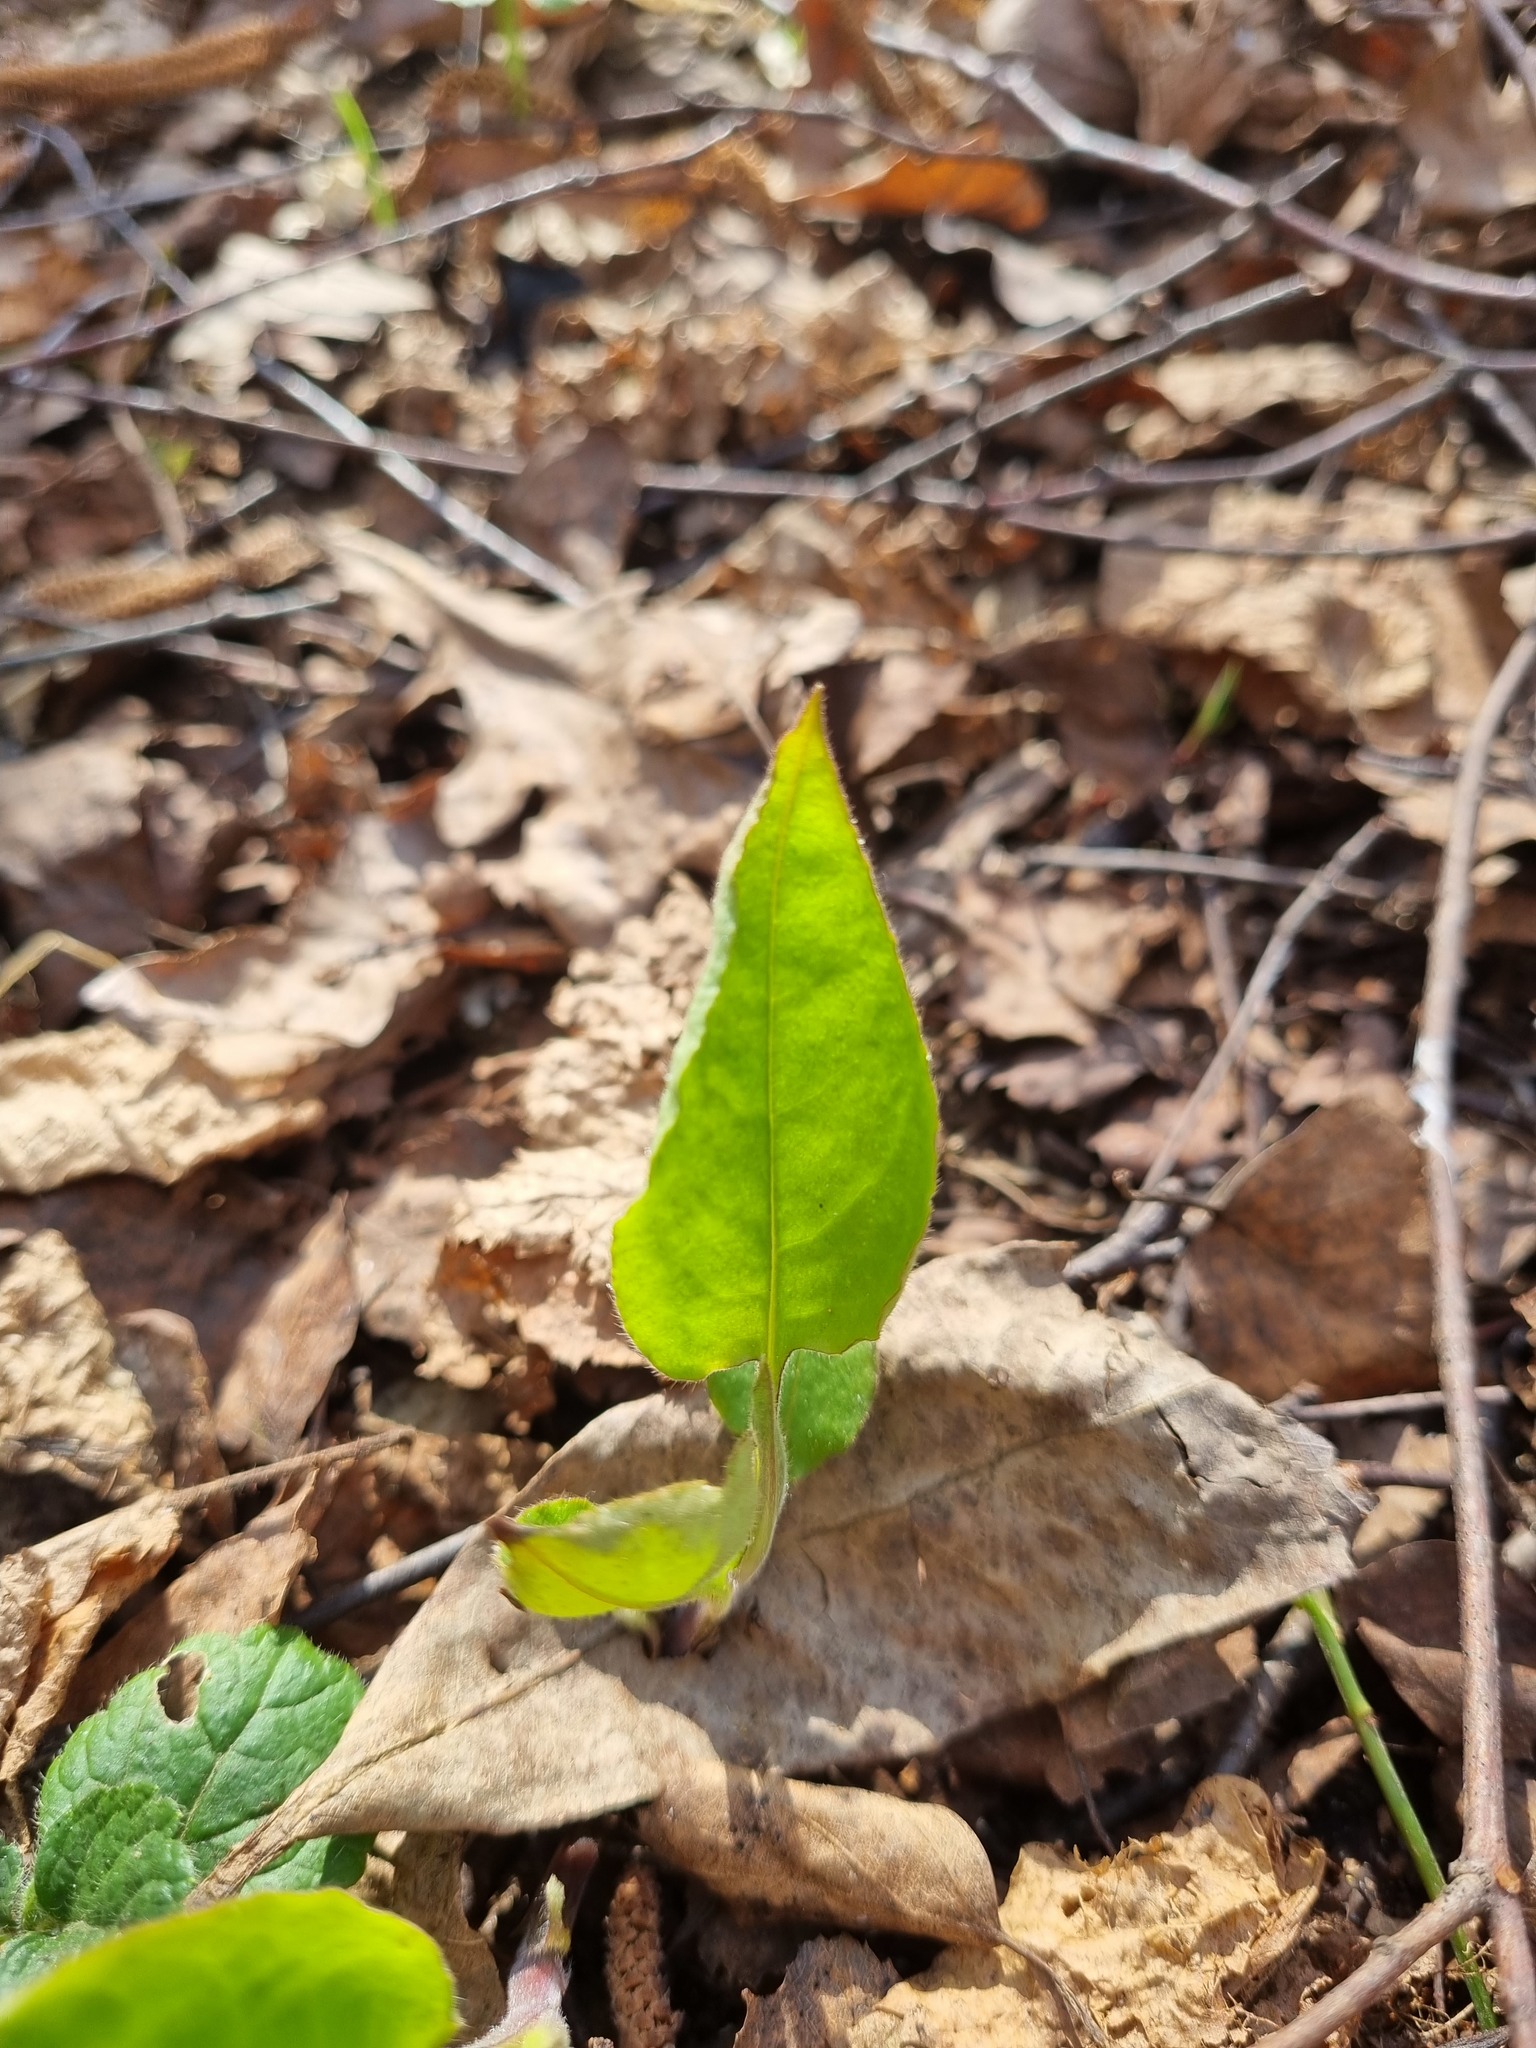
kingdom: Plantae
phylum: Tracheophyta
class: Magnoliopsida
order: Boraginales
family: Boraginaceae
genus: Pulmonaria
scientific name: Pulmonaria obscura
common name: Suffolk lungwort
